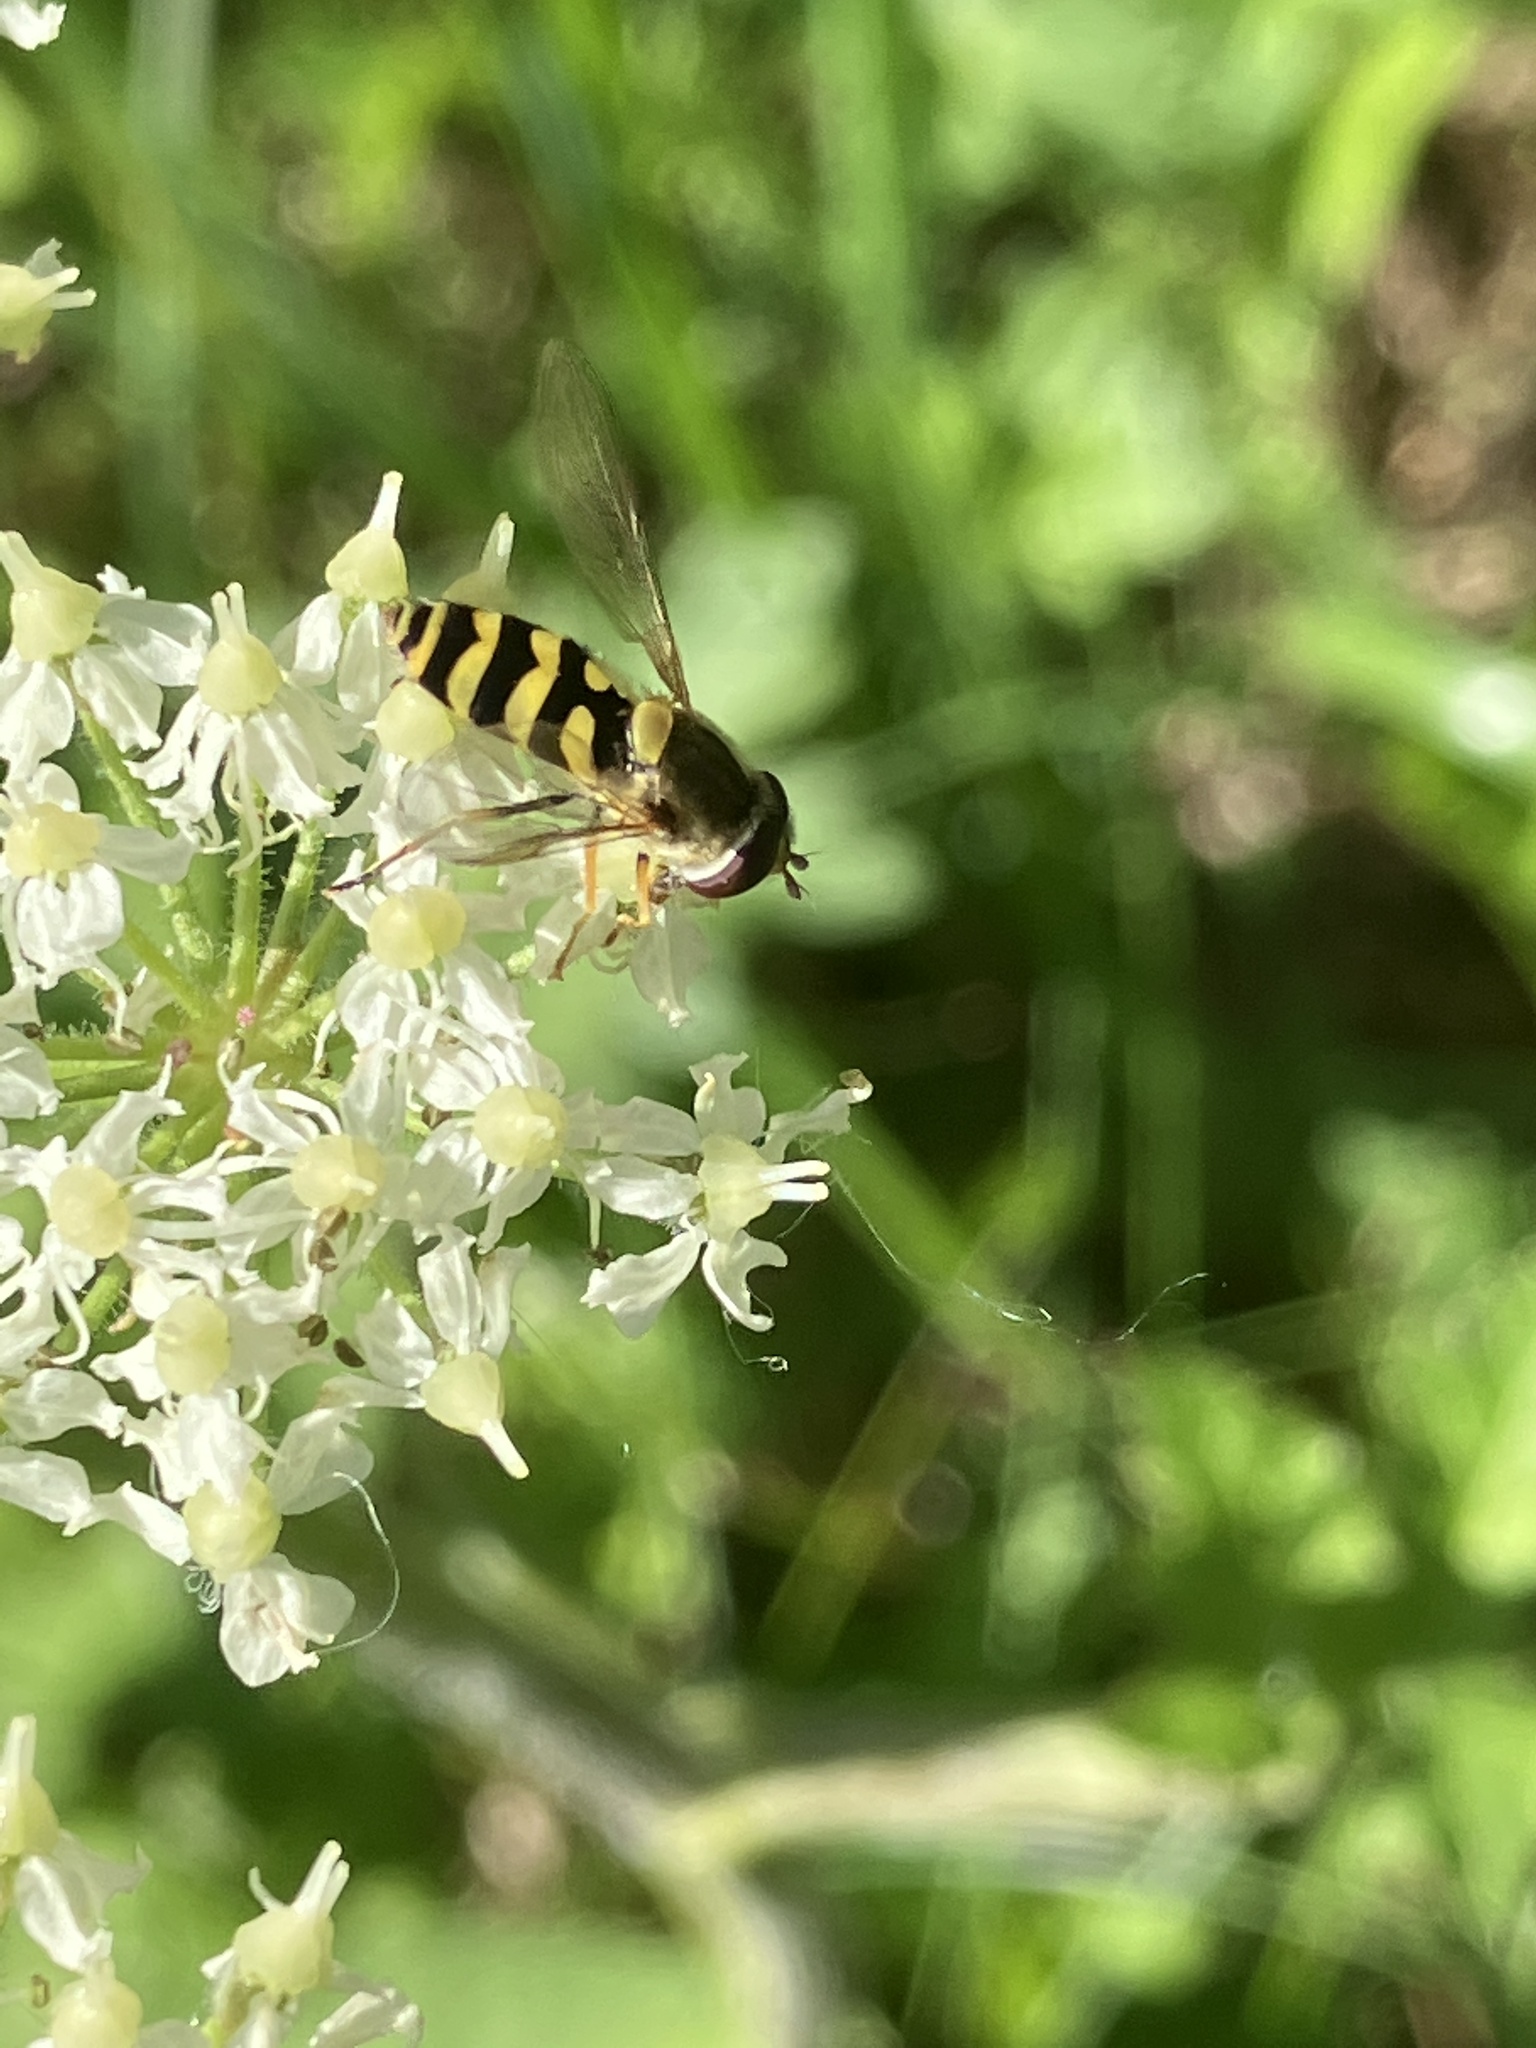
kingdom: Animalia
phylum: Arthropoda
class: Insecta
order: Diptera
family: Syrphidae
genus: Syrphus
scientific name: Syrphus
